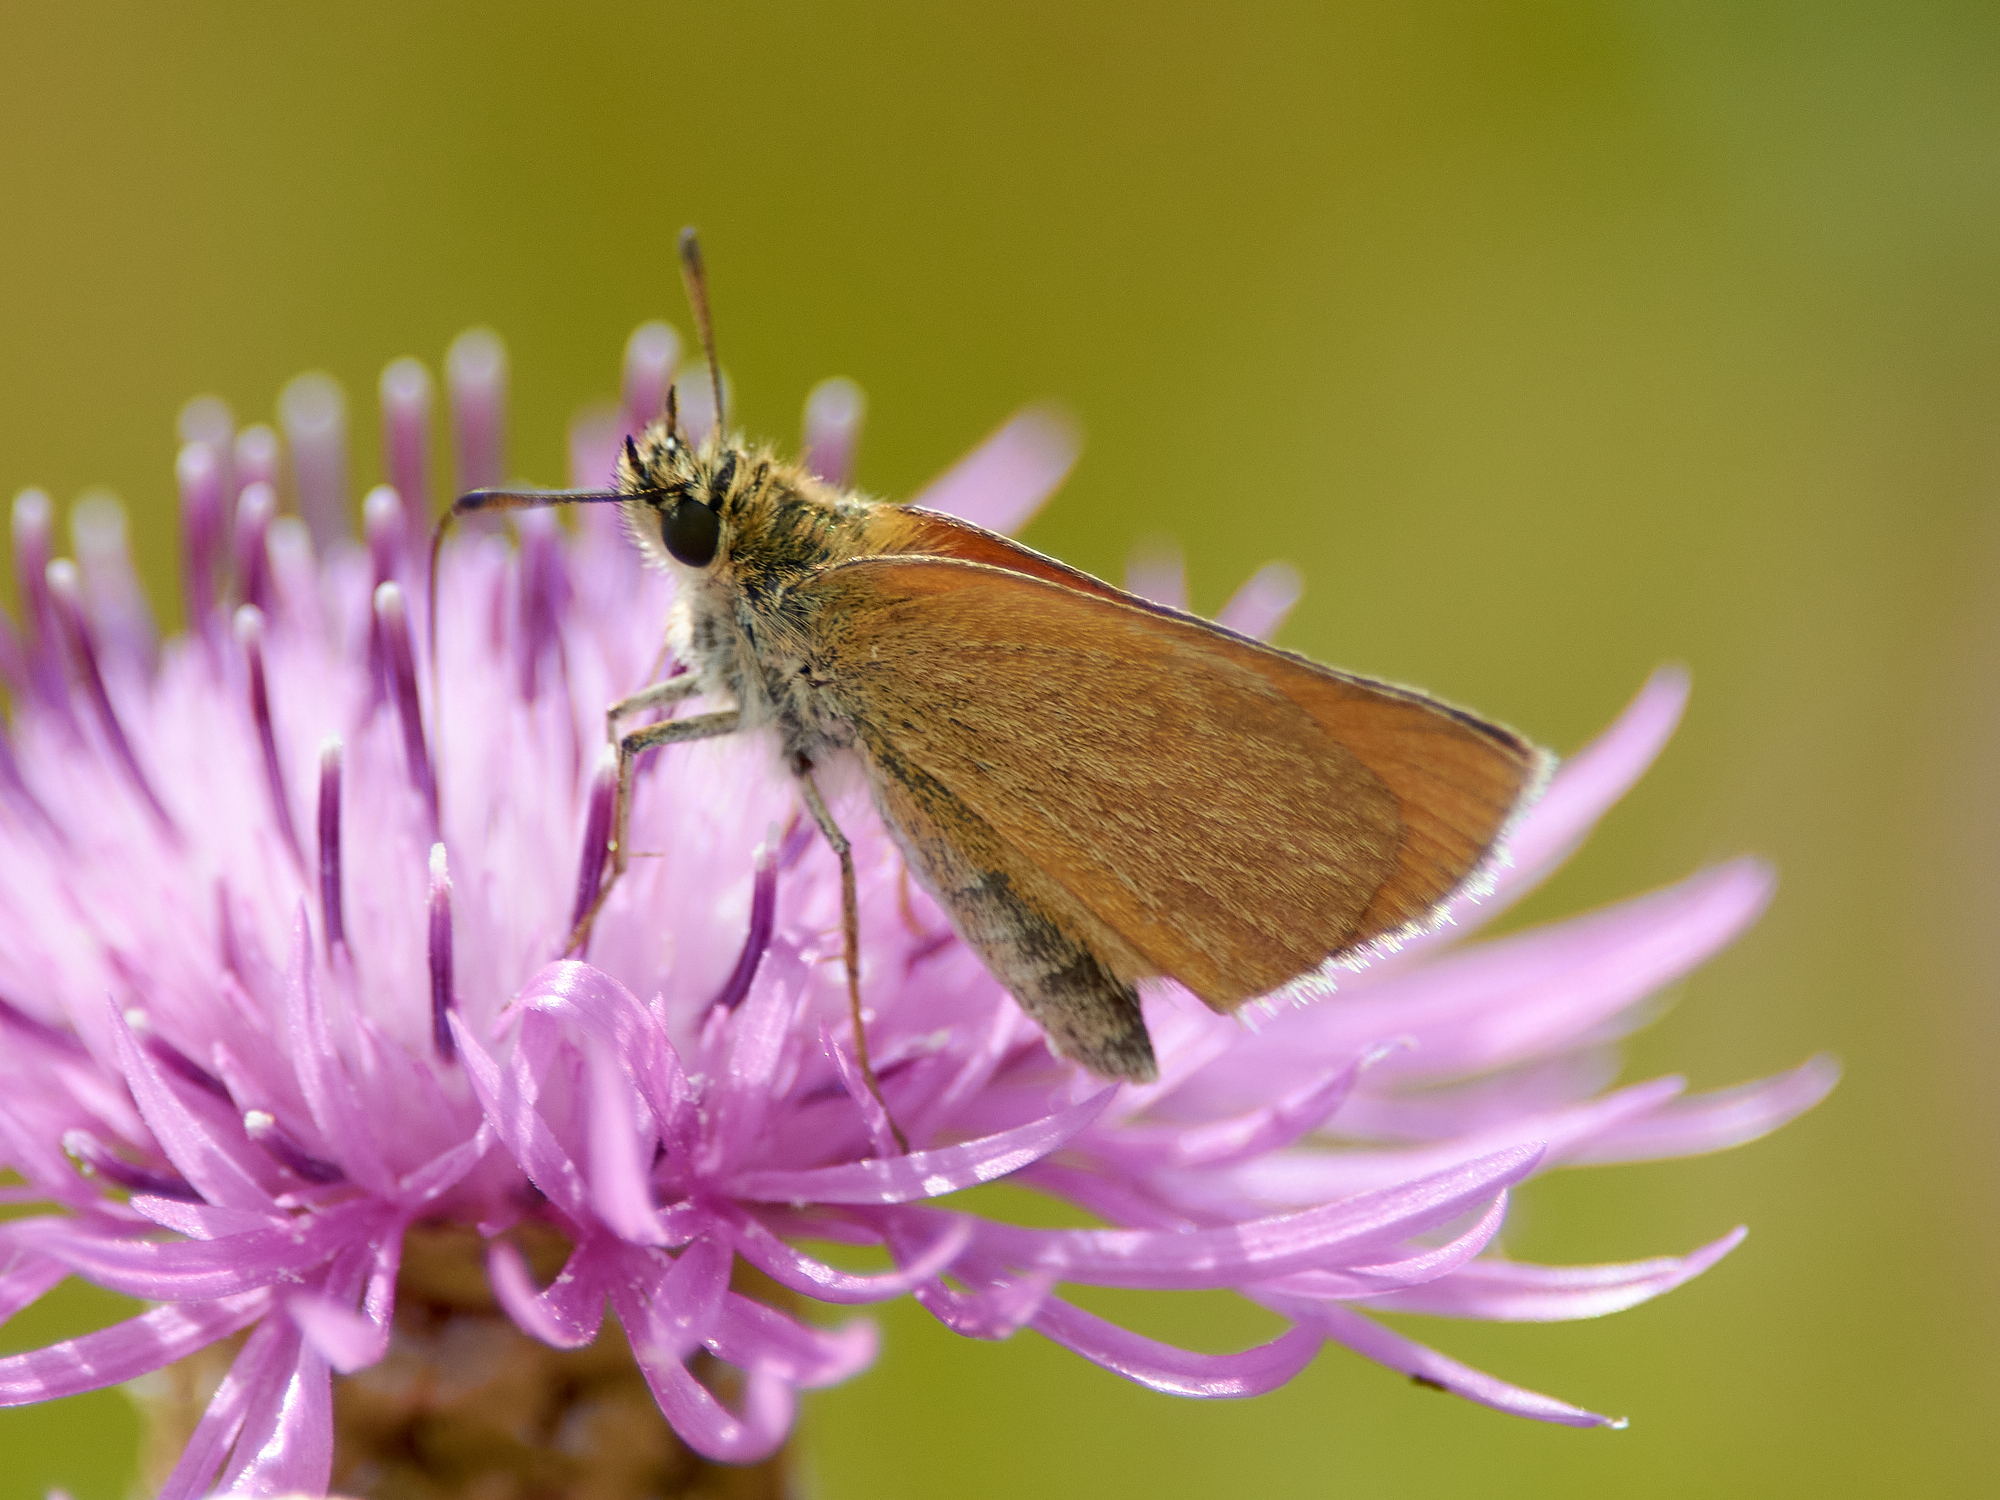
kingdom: Animalia
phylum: Arthropoda
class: Insecta
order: Lepidoptera
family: Hesperiidae
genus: Thymelicus
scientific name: Thymelicus lineola
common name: Essex skipper
